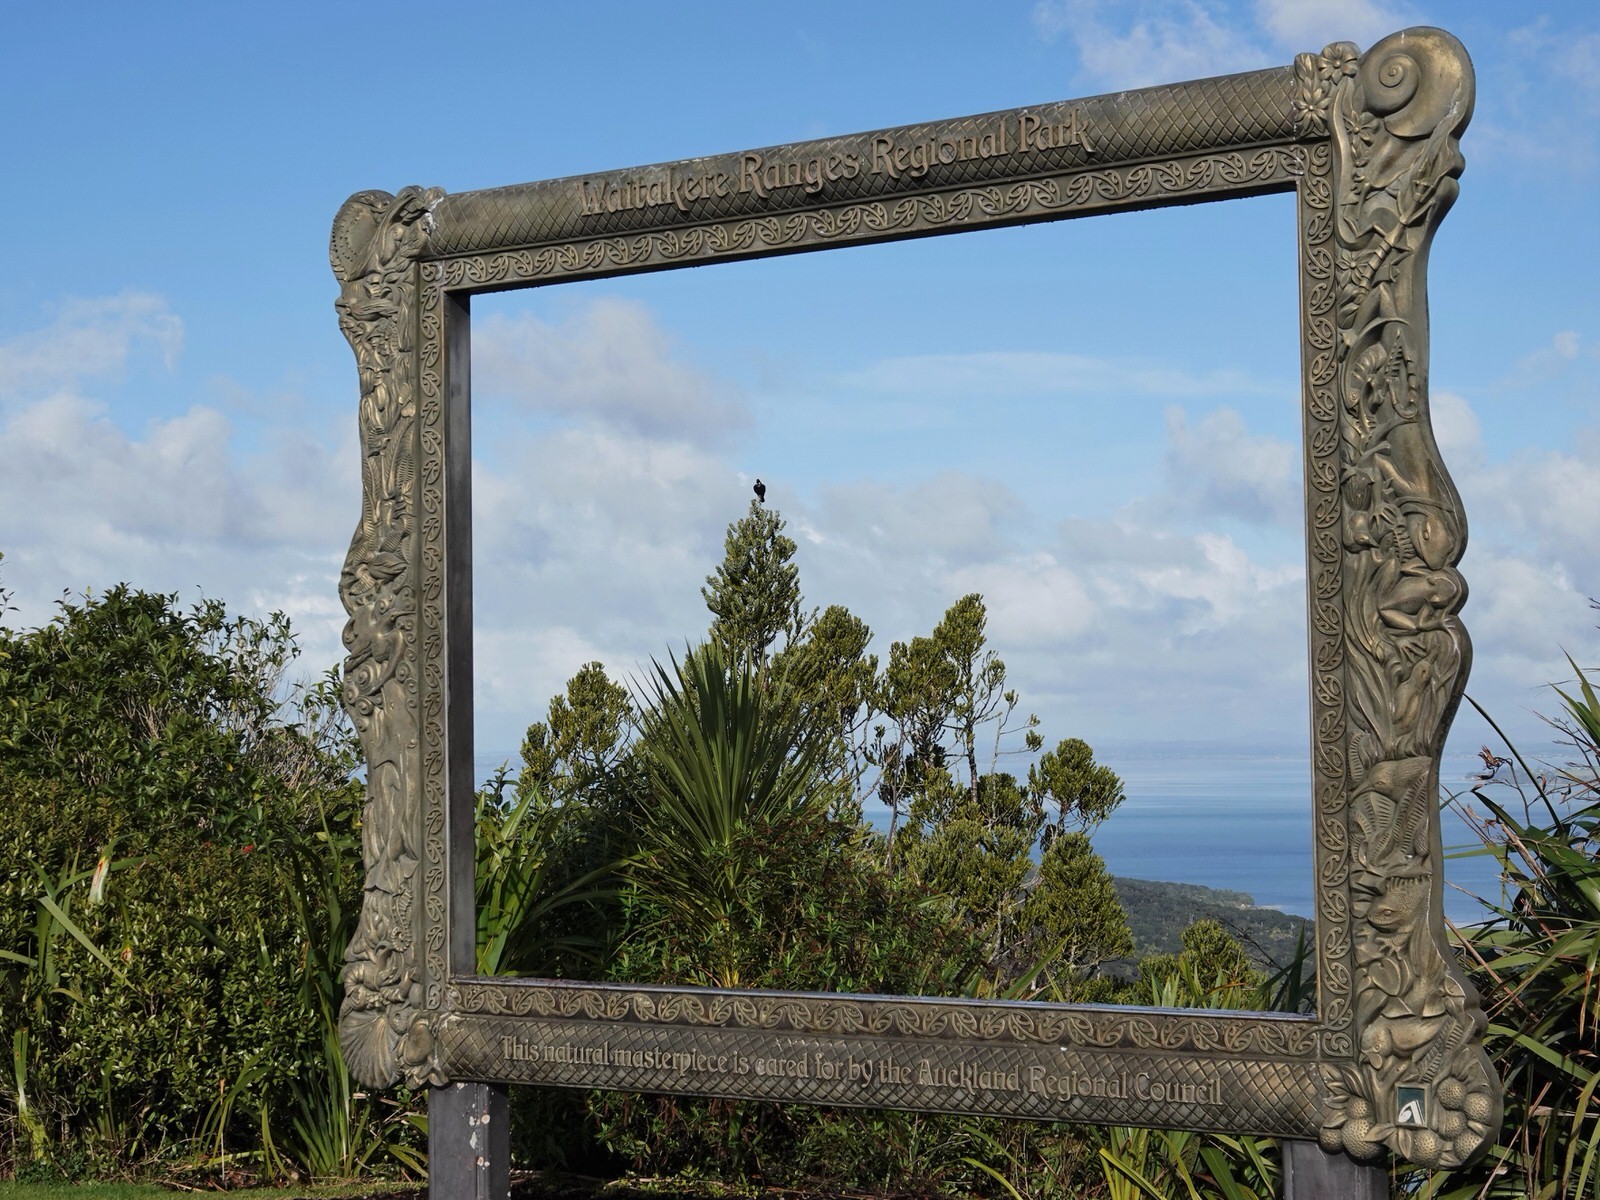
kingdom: Animalia
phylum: Chordata
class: Aves
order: Passeriformes
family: Meliphagidae
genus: Prosthemadera
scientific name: Prosthemadera novaeseelandiae
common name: Tui
